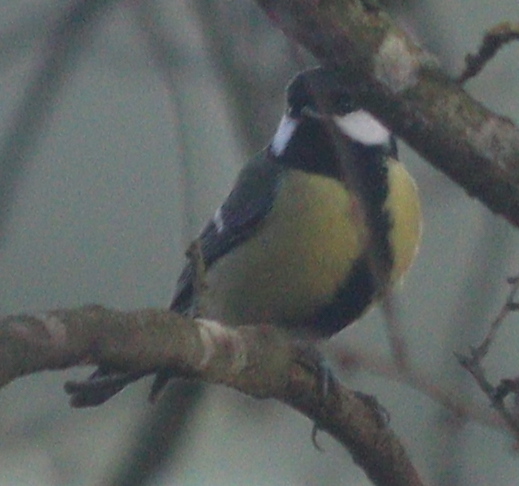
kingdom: Animalia
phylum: Chordata
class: Aves
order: Passeriformes
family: Paridae
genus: Parus
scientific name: Parus major
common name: Great tit
